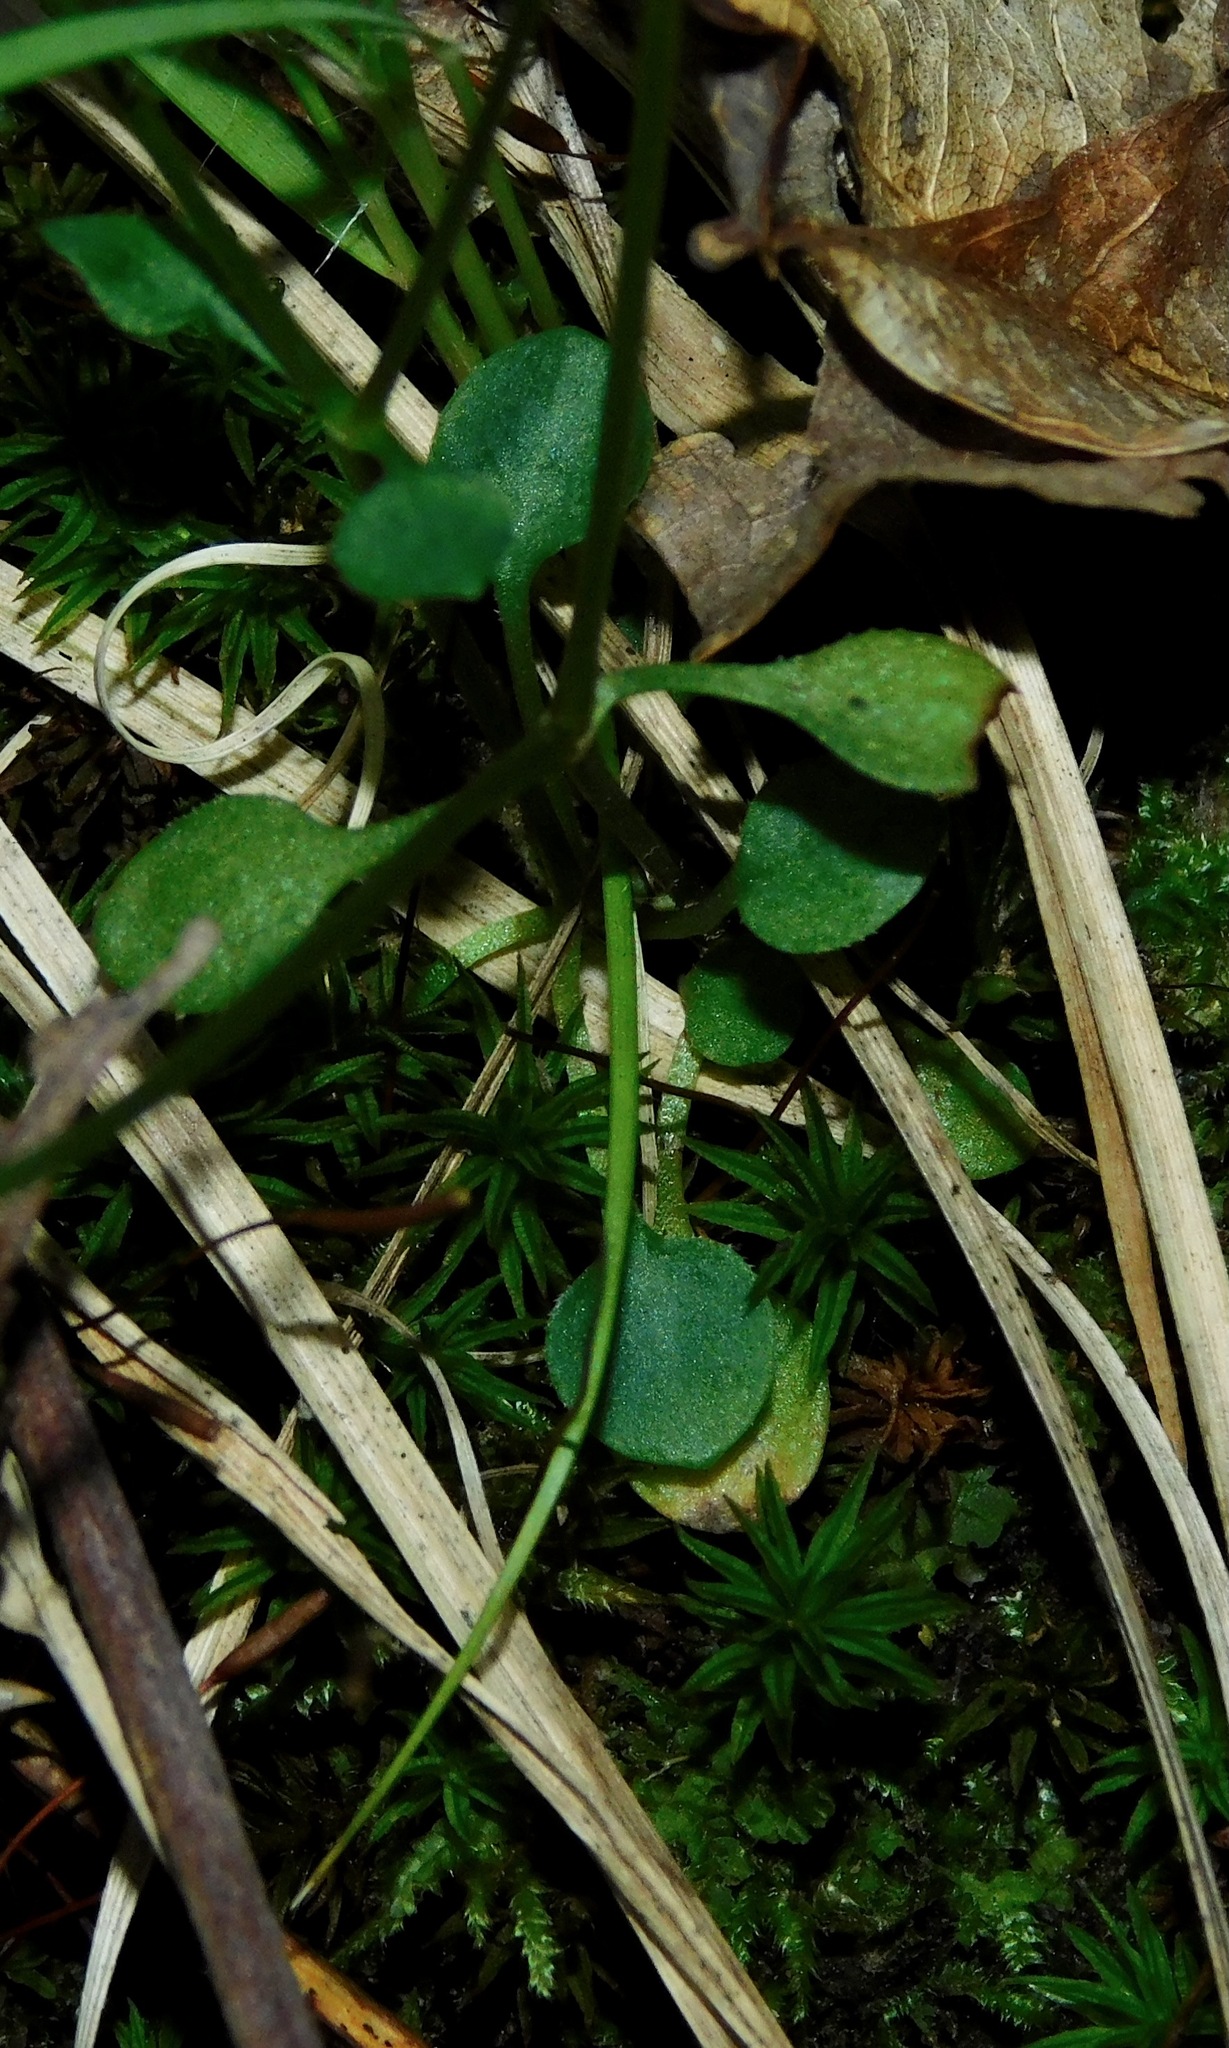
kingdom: Plantae
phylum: Tracheophyta
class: Magnoliopsida
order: Gentianales
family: Rubiaceae
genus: Houstonia
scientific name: Houstonia caerulea
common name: Bluets
